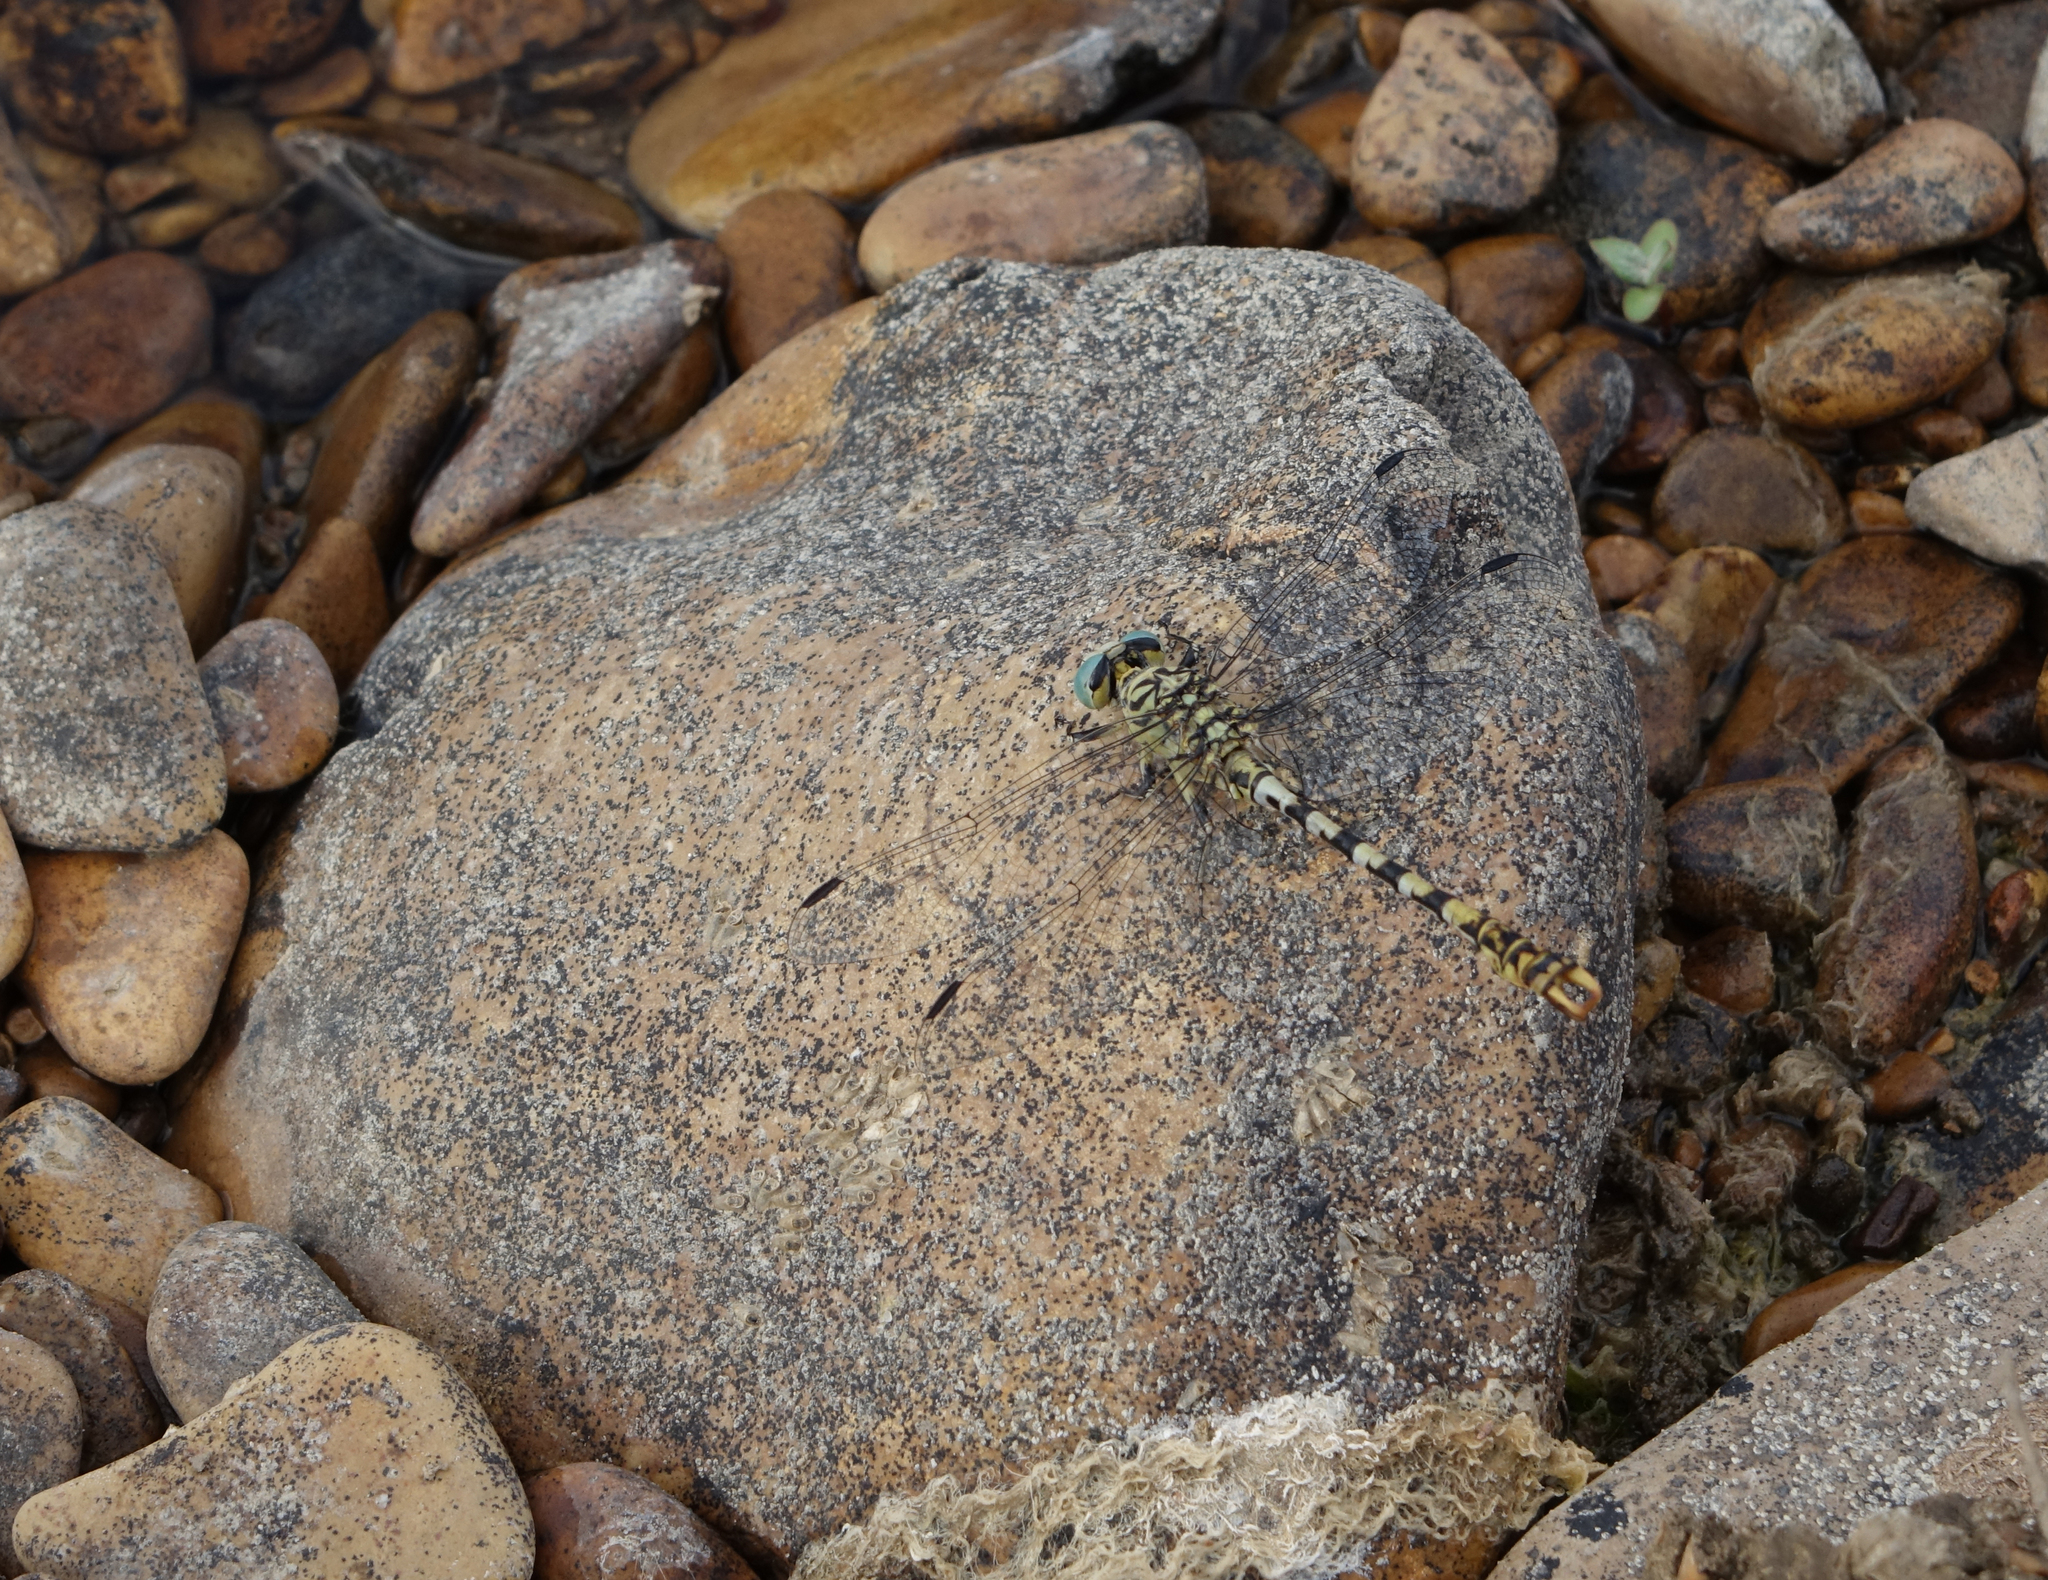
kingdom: Animalia
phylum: Arthropoda
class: Insecta
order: Odonata
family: Gomphidae
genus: Onychogomphus
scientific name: Onychogomphus forcipatus
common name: Small pincertail
